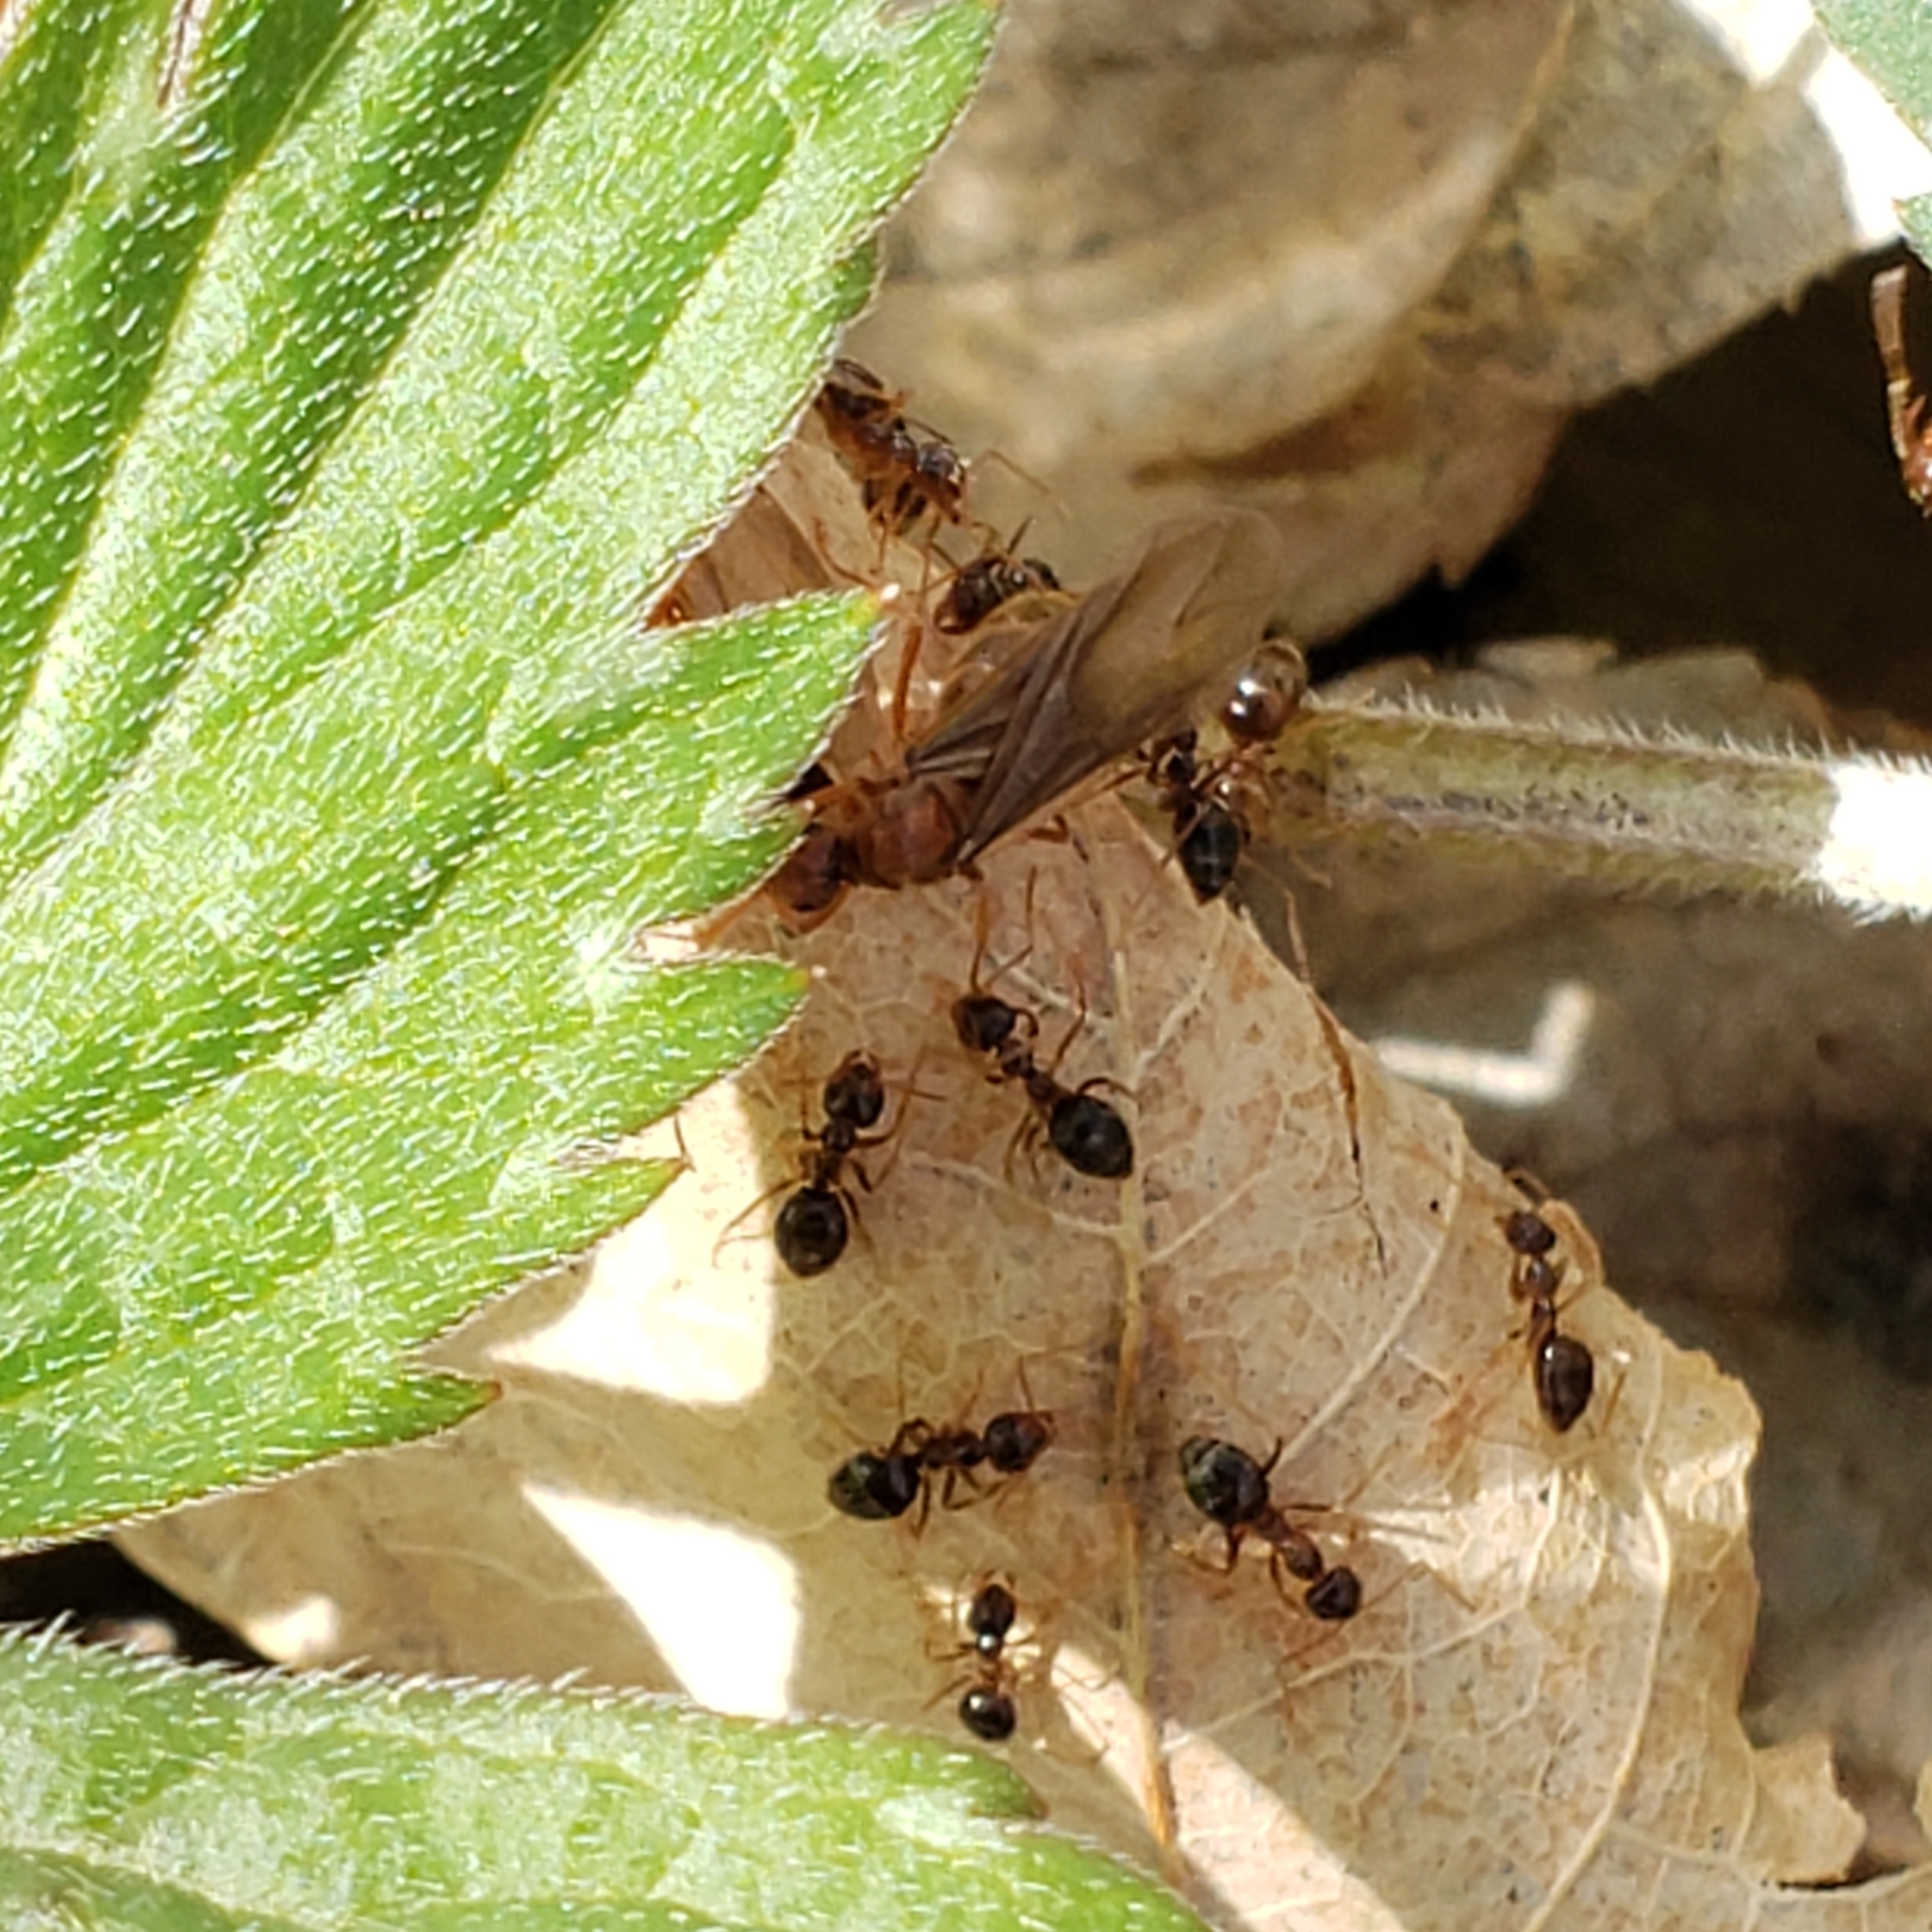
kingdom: Animalia
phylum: Arthropoda
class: Insecta
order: Hymenoptera
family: Formicidae
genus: Prenolepis
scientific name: Prenolepis imparis
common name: Small honey ant
